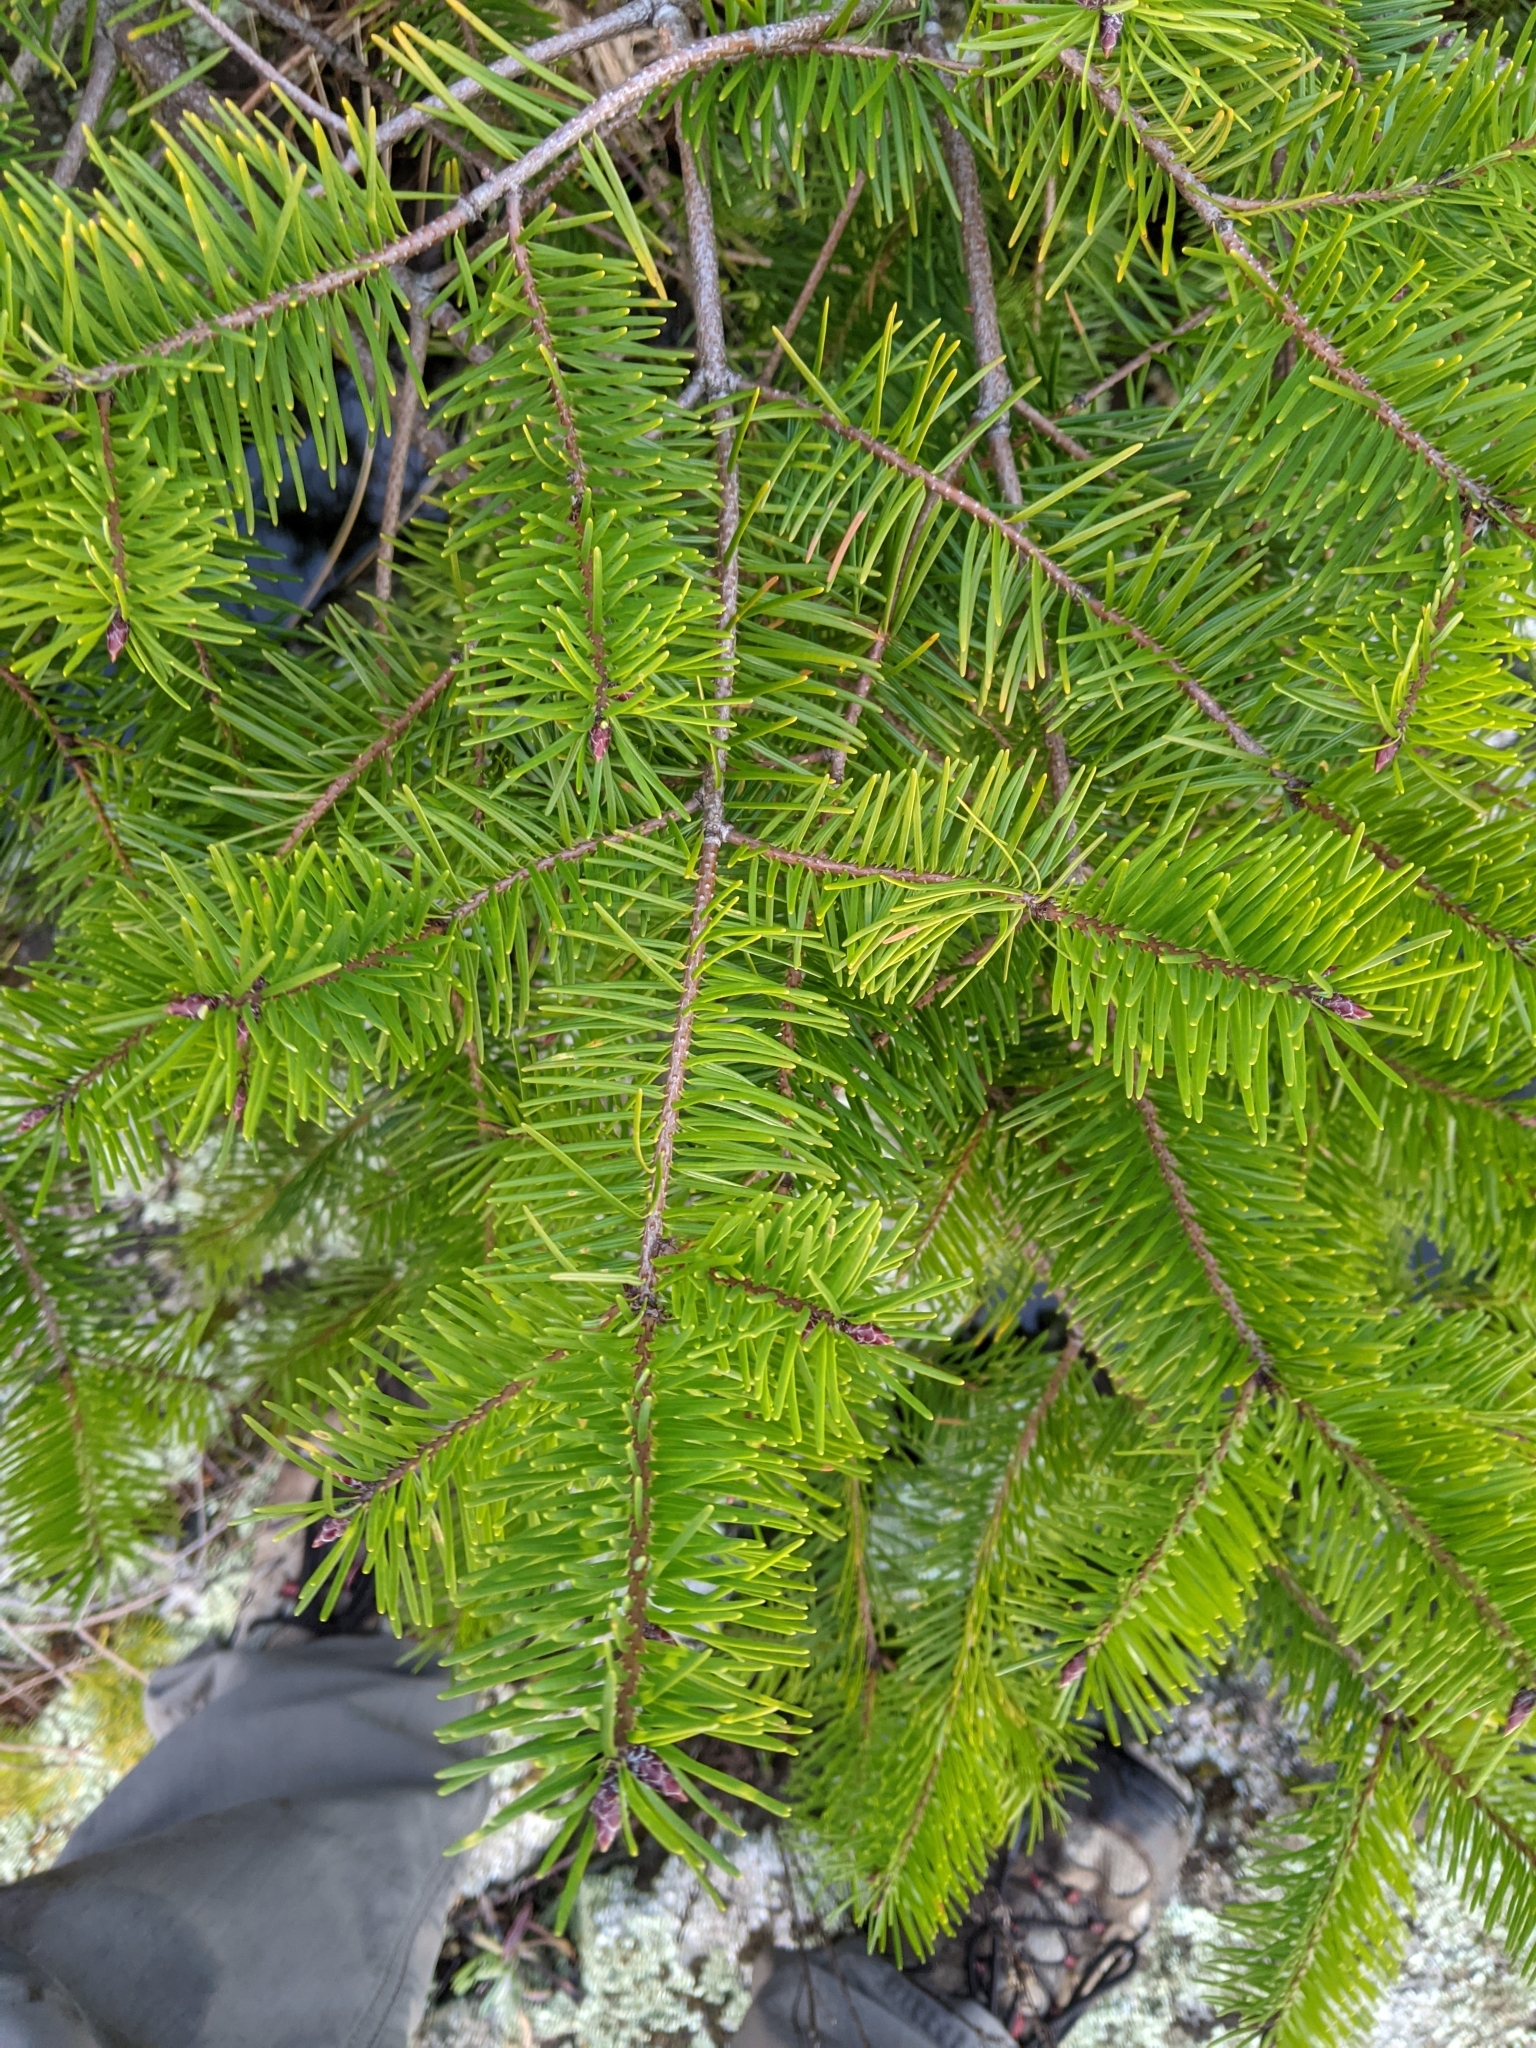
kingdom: Plantae
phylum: Tracheophyta
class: Pinopsida
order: Pinales
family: Pinaceae
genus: Pseudotsuga
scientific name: Pseudotsuga menziesii
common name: Douglas fir
